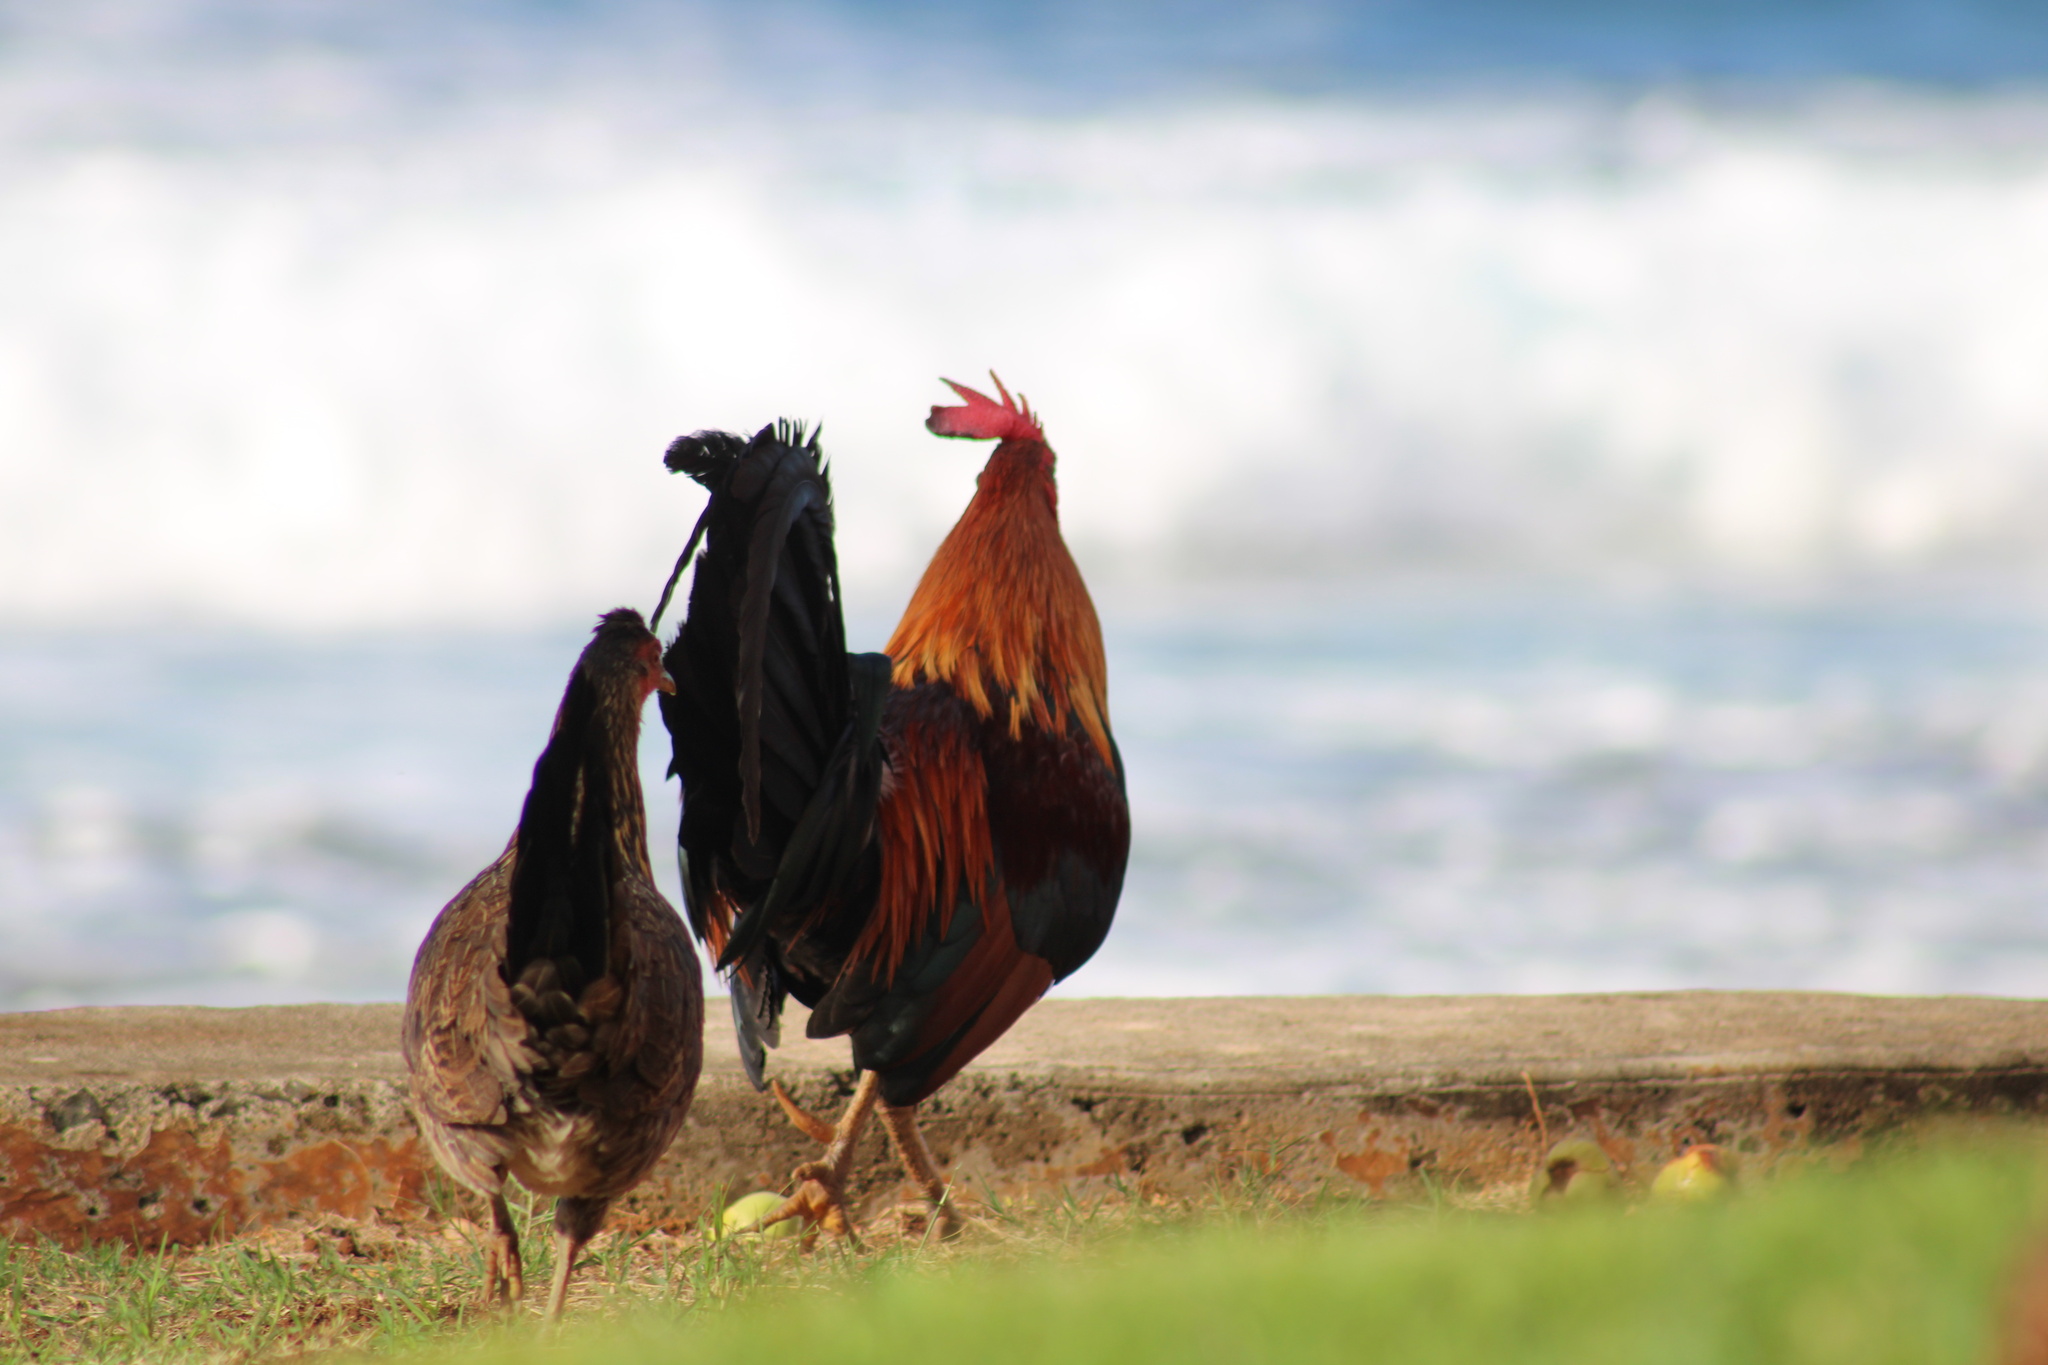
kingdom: Animalia
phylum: Chordata
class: Aves
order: Galliformes
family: Phasianidae
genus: Gallus
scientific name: Gallus gallus
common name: Red junglefowl
